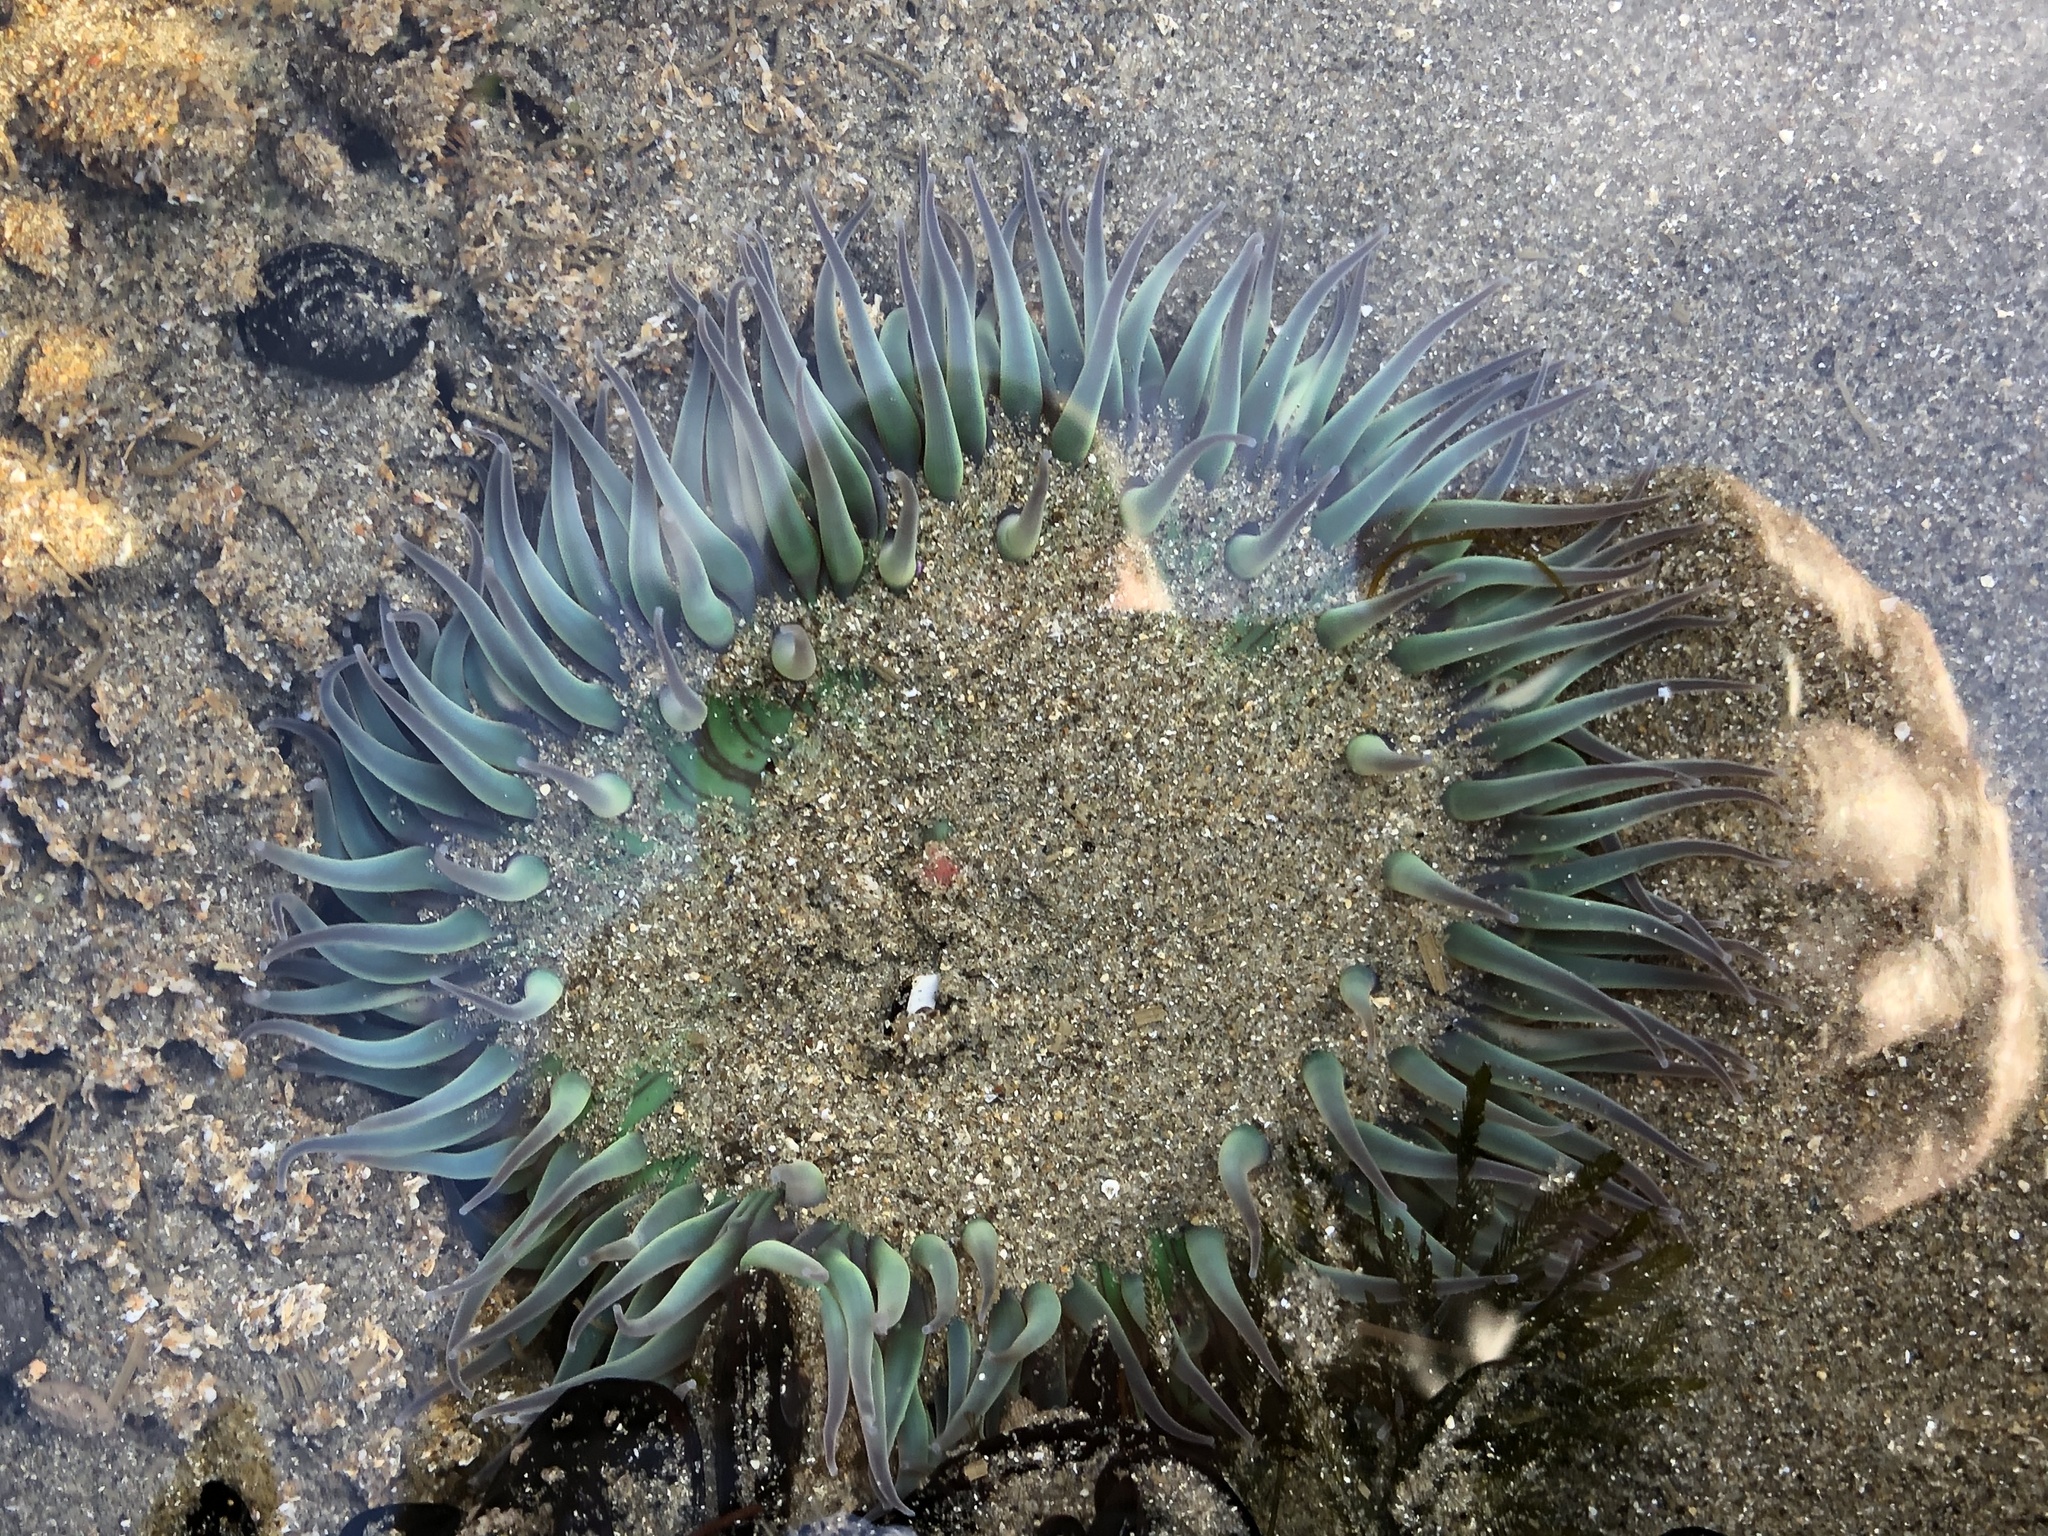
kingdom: Animalia
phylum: Cnidaria
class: Anthozoa
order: Actiniaria
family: Actiniidae
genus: Anthopleura
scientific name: Anthopleura sola
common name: Sun anemone
